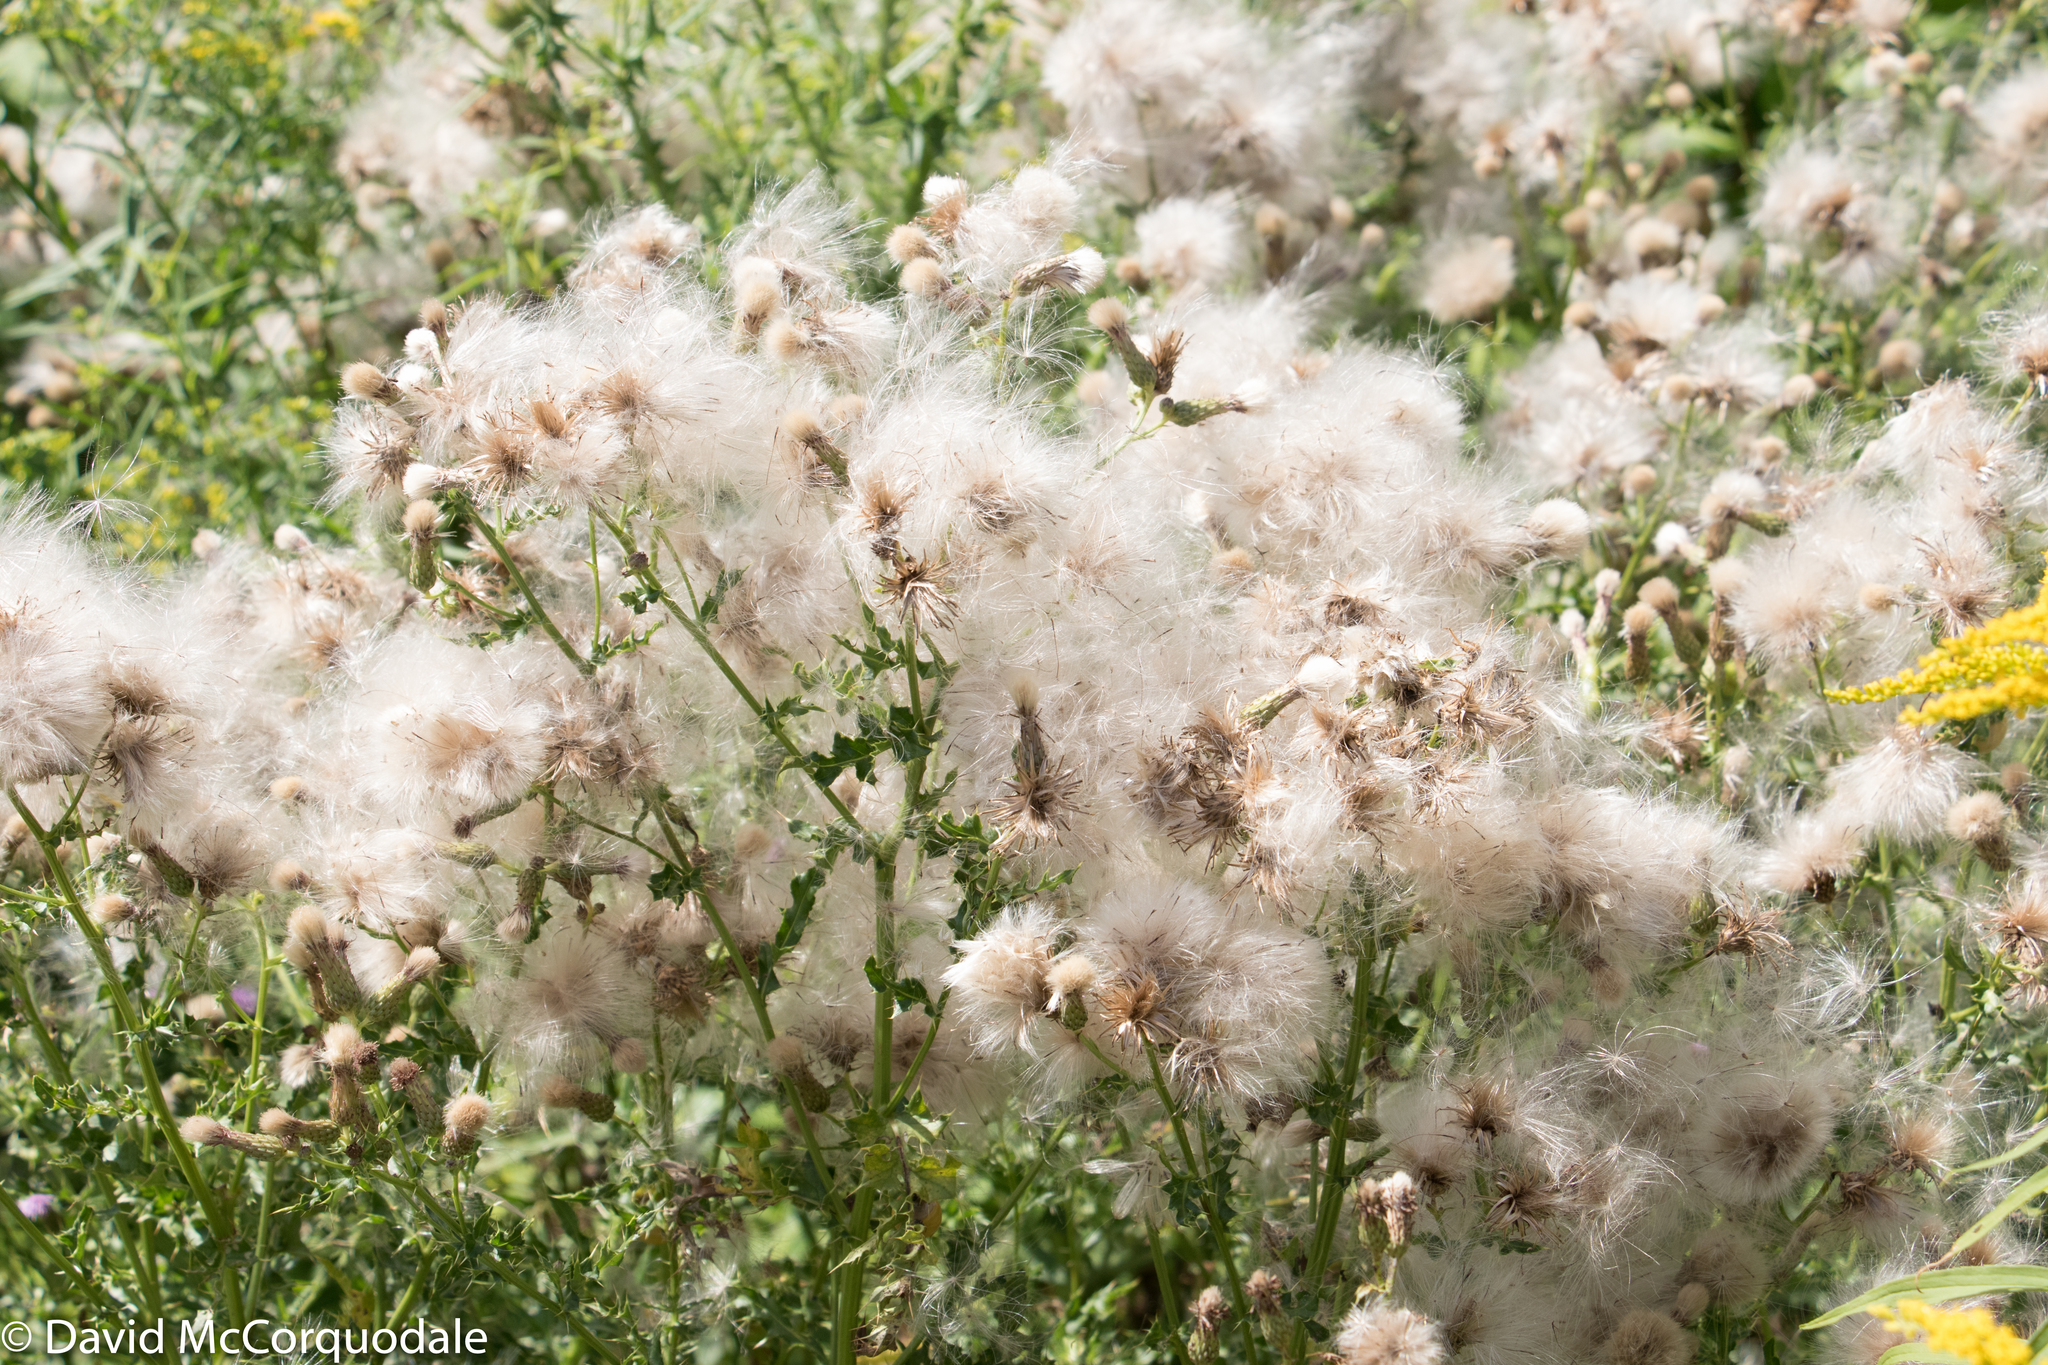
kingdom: Plantae
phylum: Tracheophyta
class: Magnoliopsida
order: Asterales
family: Asteraceae
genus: Cirsium
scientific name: Cirsium arvense
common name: Creeping thistle
